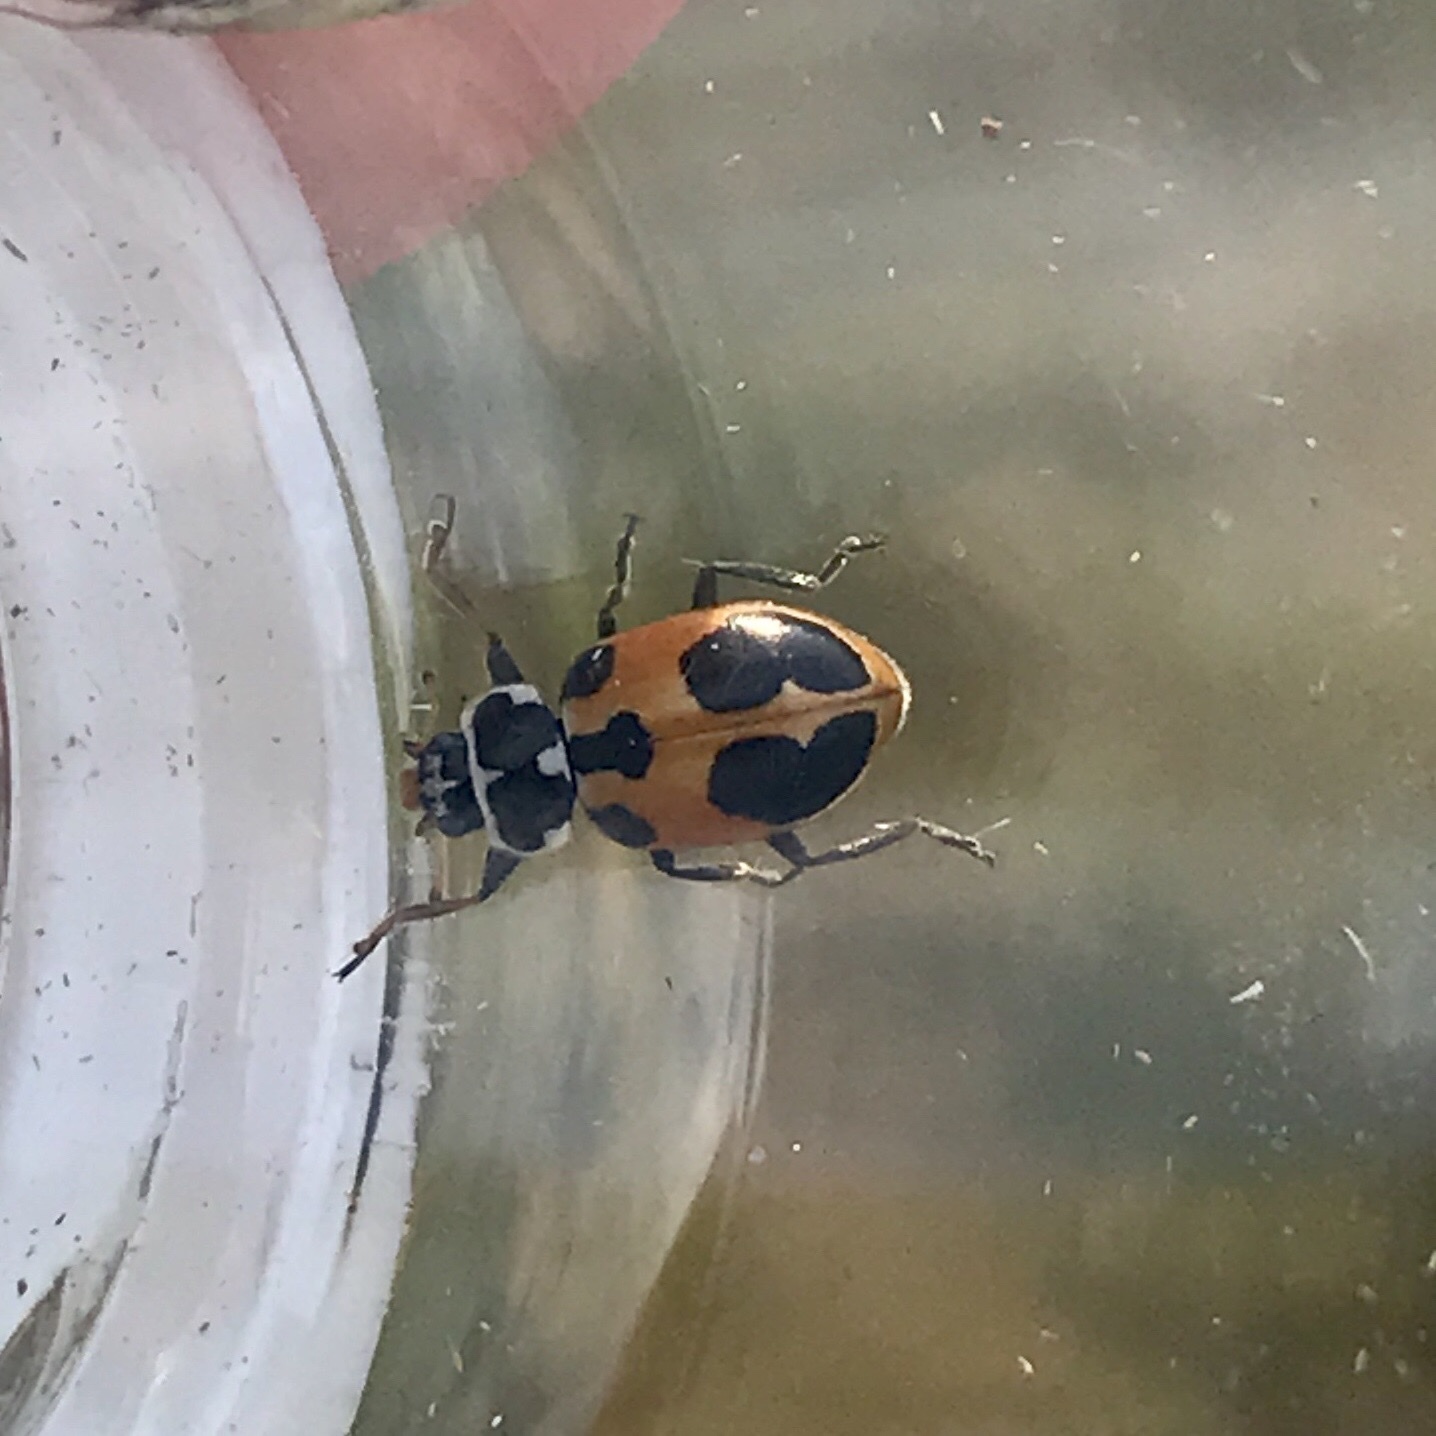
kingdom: Animalia
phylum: Arthropoda
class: Insecta
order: Coleoptera
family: Coccinellidae
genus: Hippodamia
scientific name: Hippodamia parenthesis
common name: Parenthesis lady beetle
